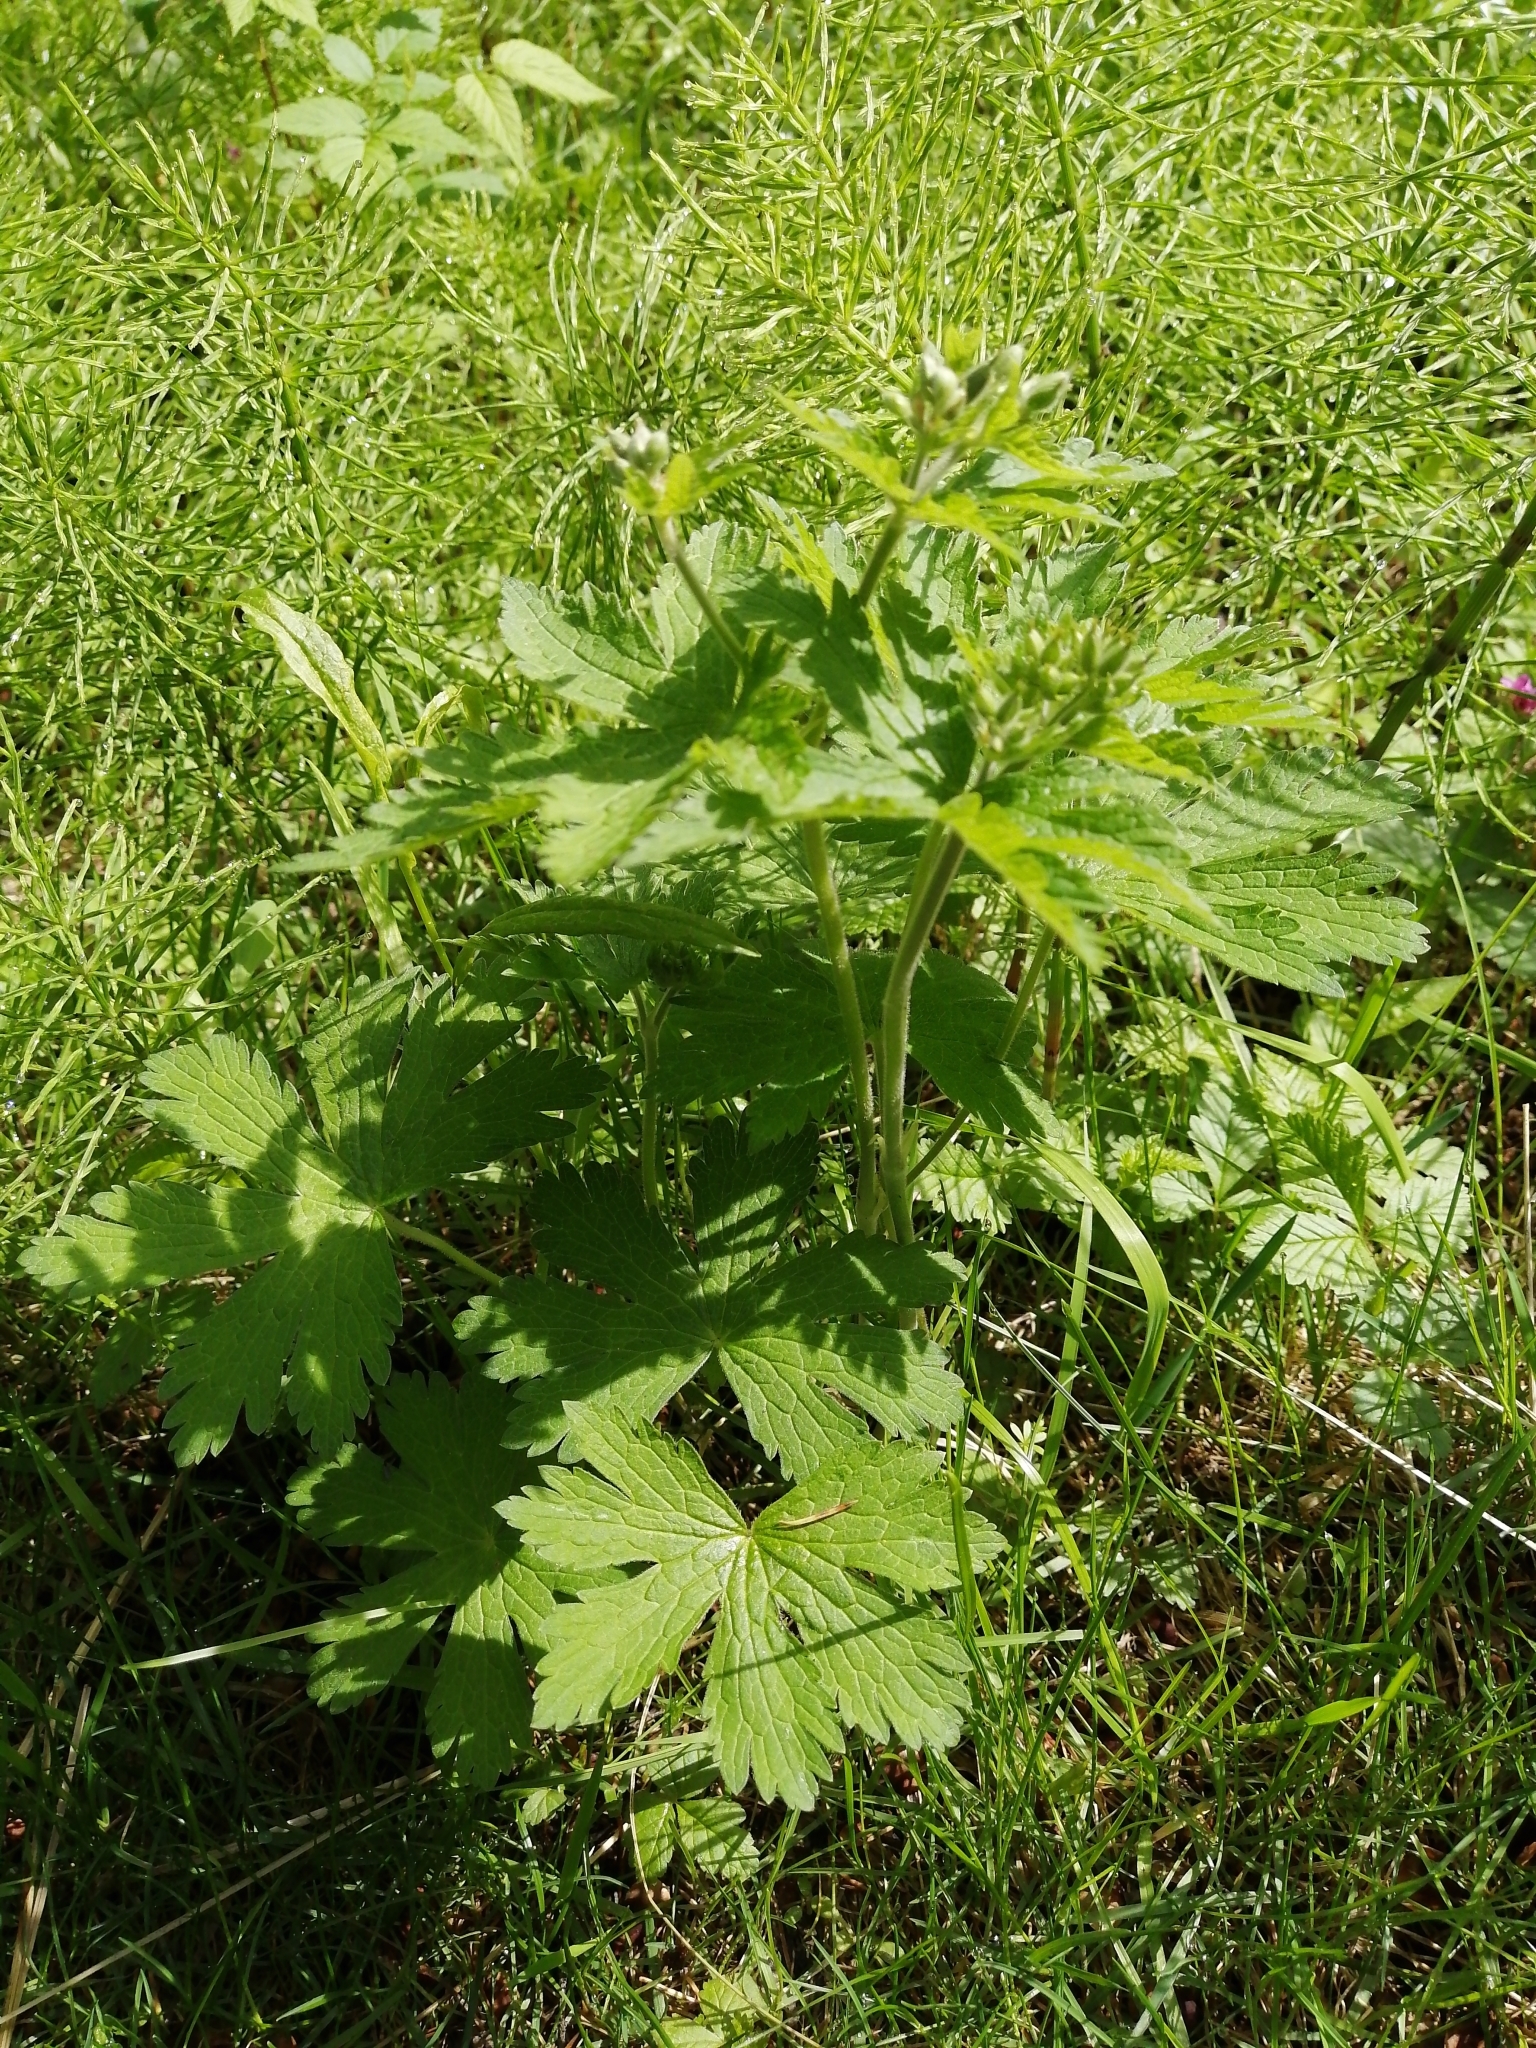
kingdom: Plantae
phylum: Tracheophyta
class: Magnoliopsida
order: Geraniales
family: Geraniaceae
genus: Geranium
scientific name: Geranium sylvaticum
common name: Wood crane's-bill
